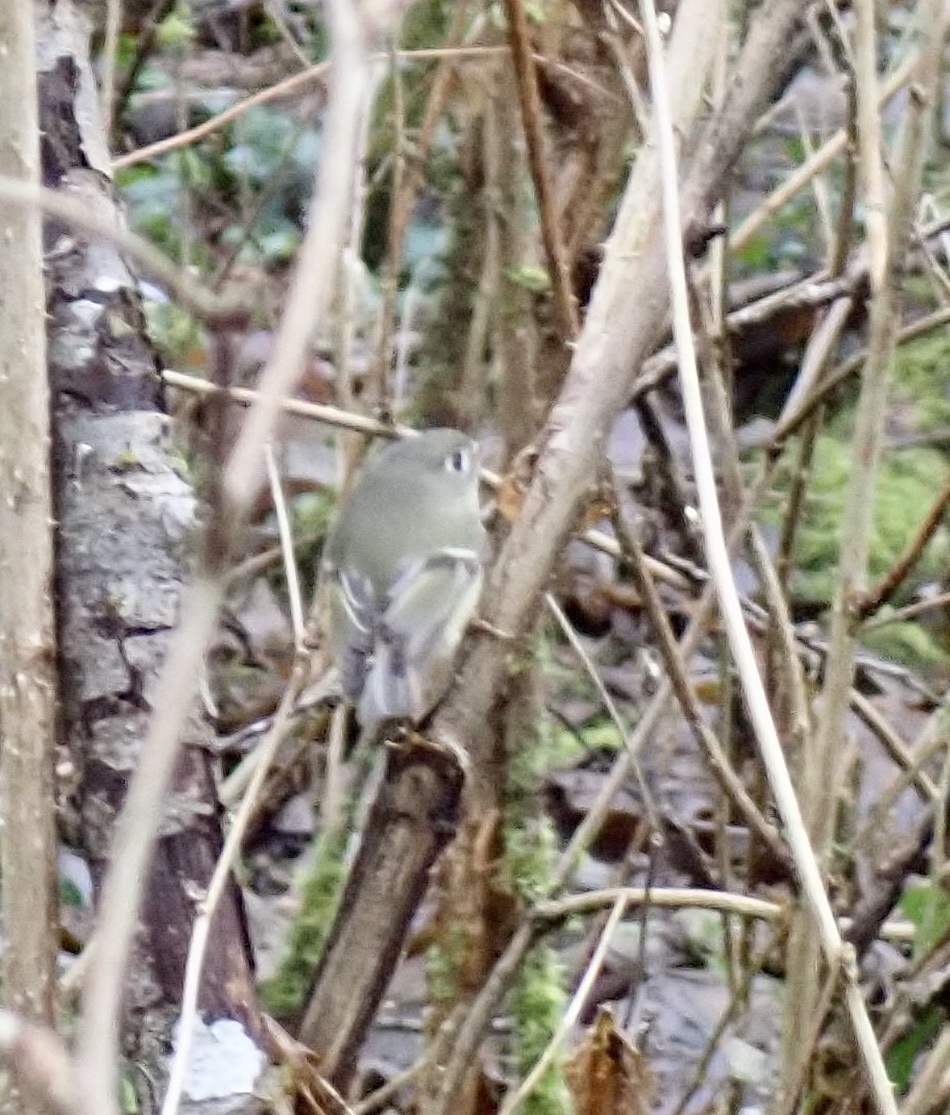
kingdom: Animalia
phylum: Chordata
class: Aves
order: Passeriformes
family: Regulidae
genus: Regulus
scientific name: Regulus calendula
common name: Ruby-crowned kinglet
